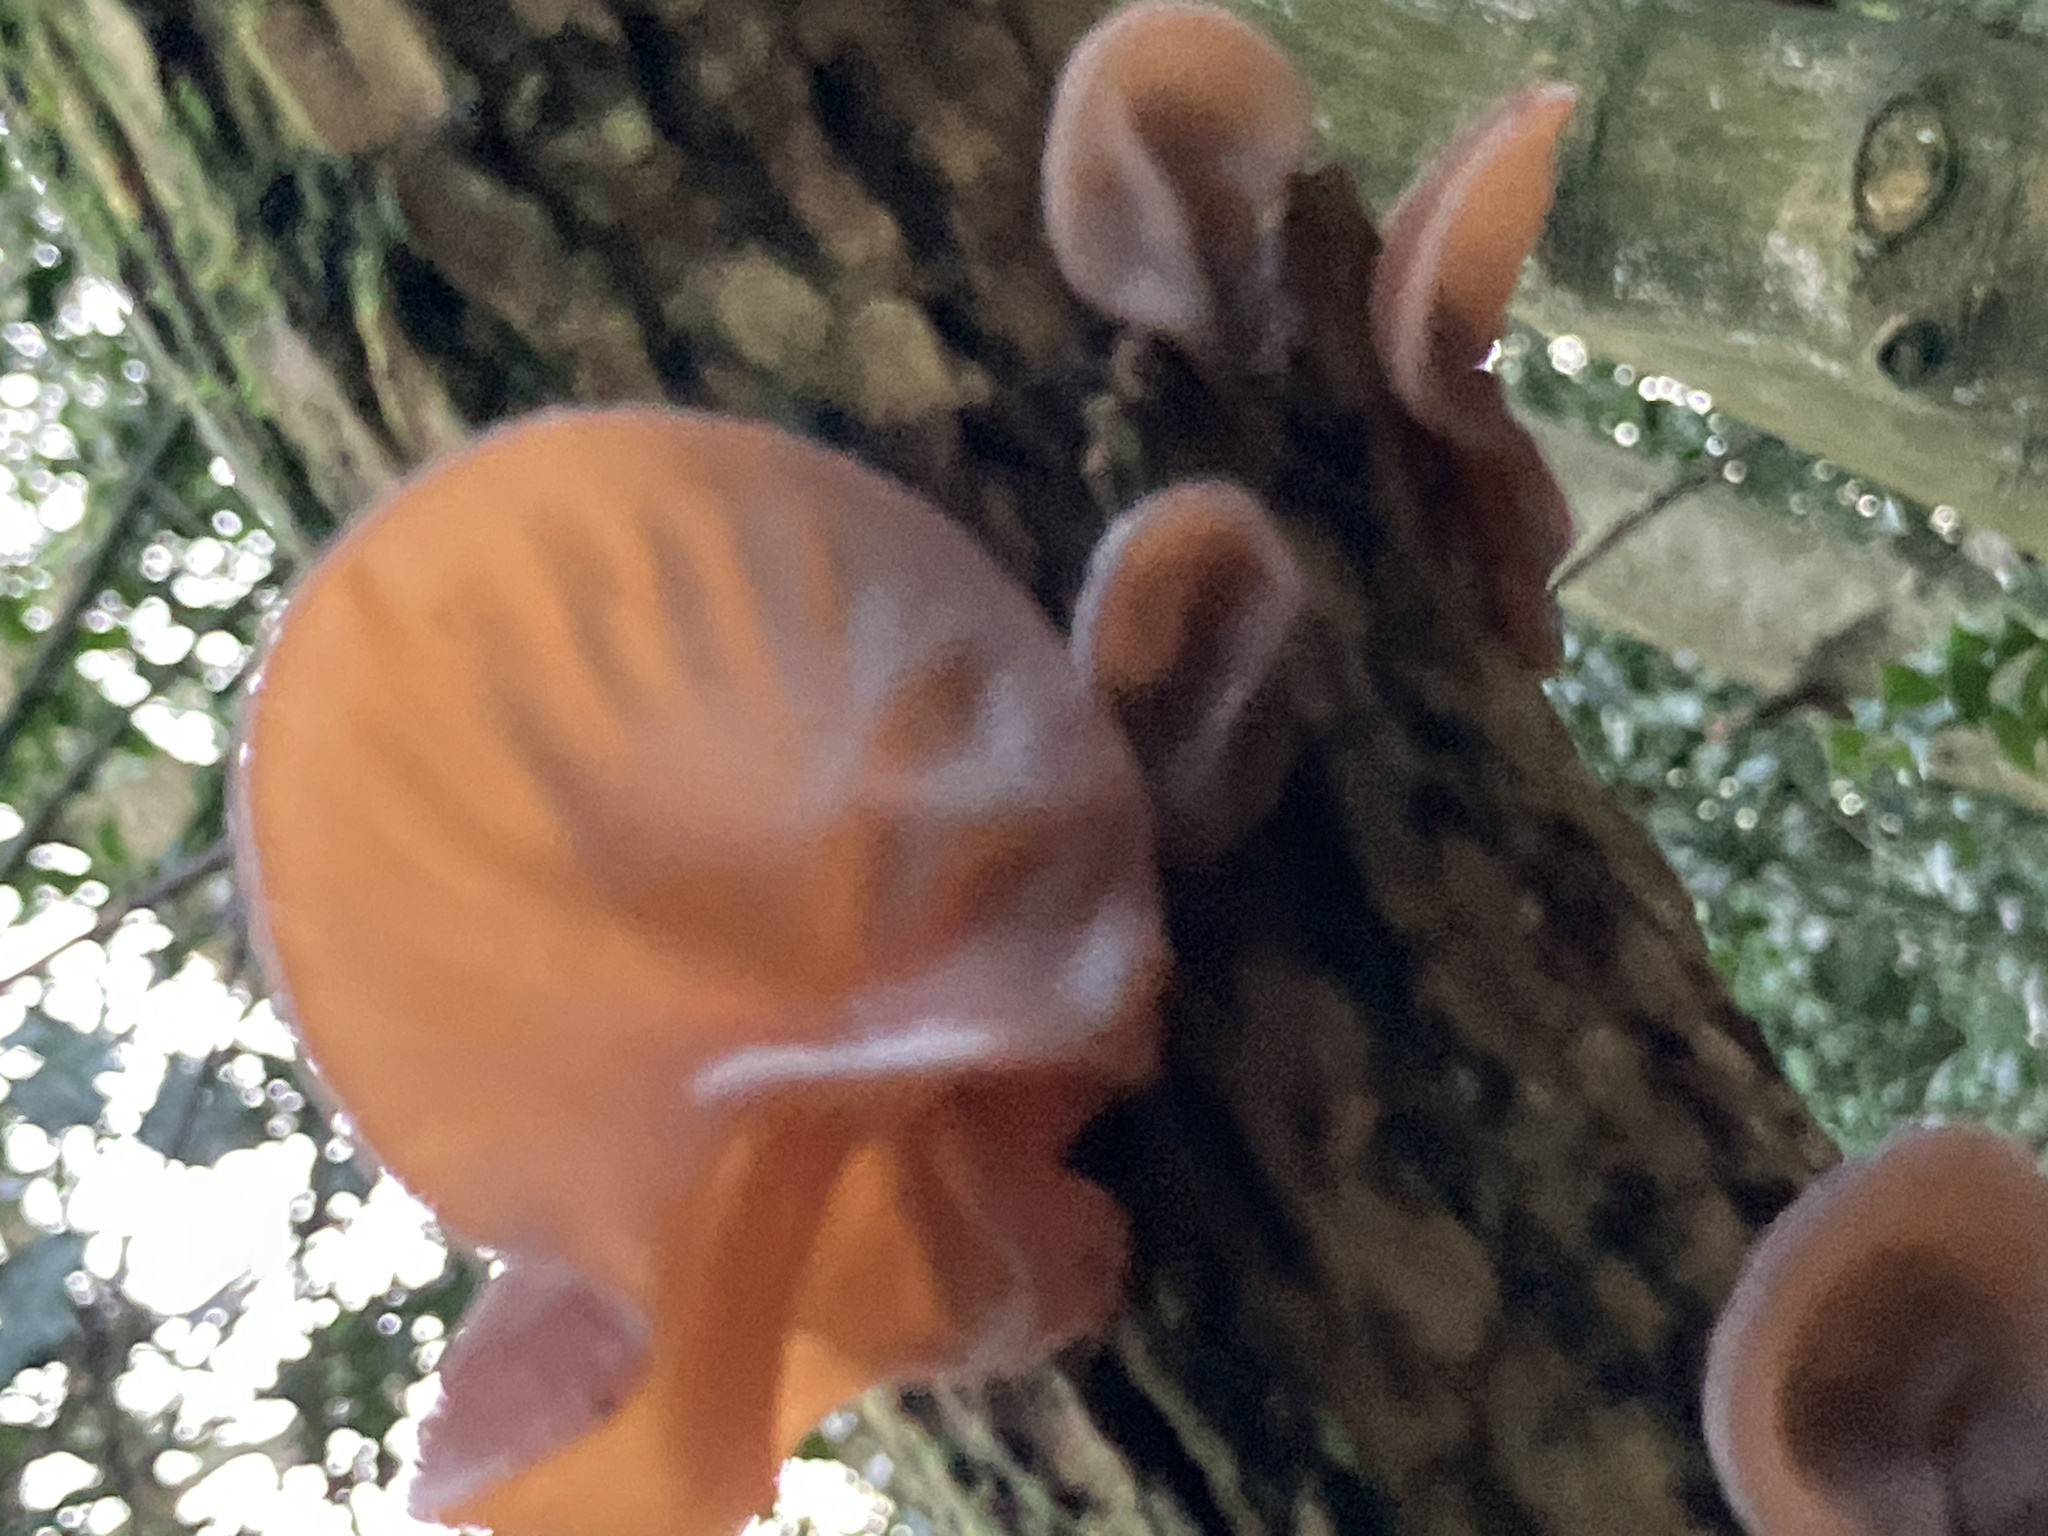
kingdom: Fungi
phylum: Basidiomycota
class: Agaricomycetes
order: Auriculariales
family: Auriculariaceae
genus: Auricularia
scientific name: Auricularia auricula-judae
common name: Jelly ear
